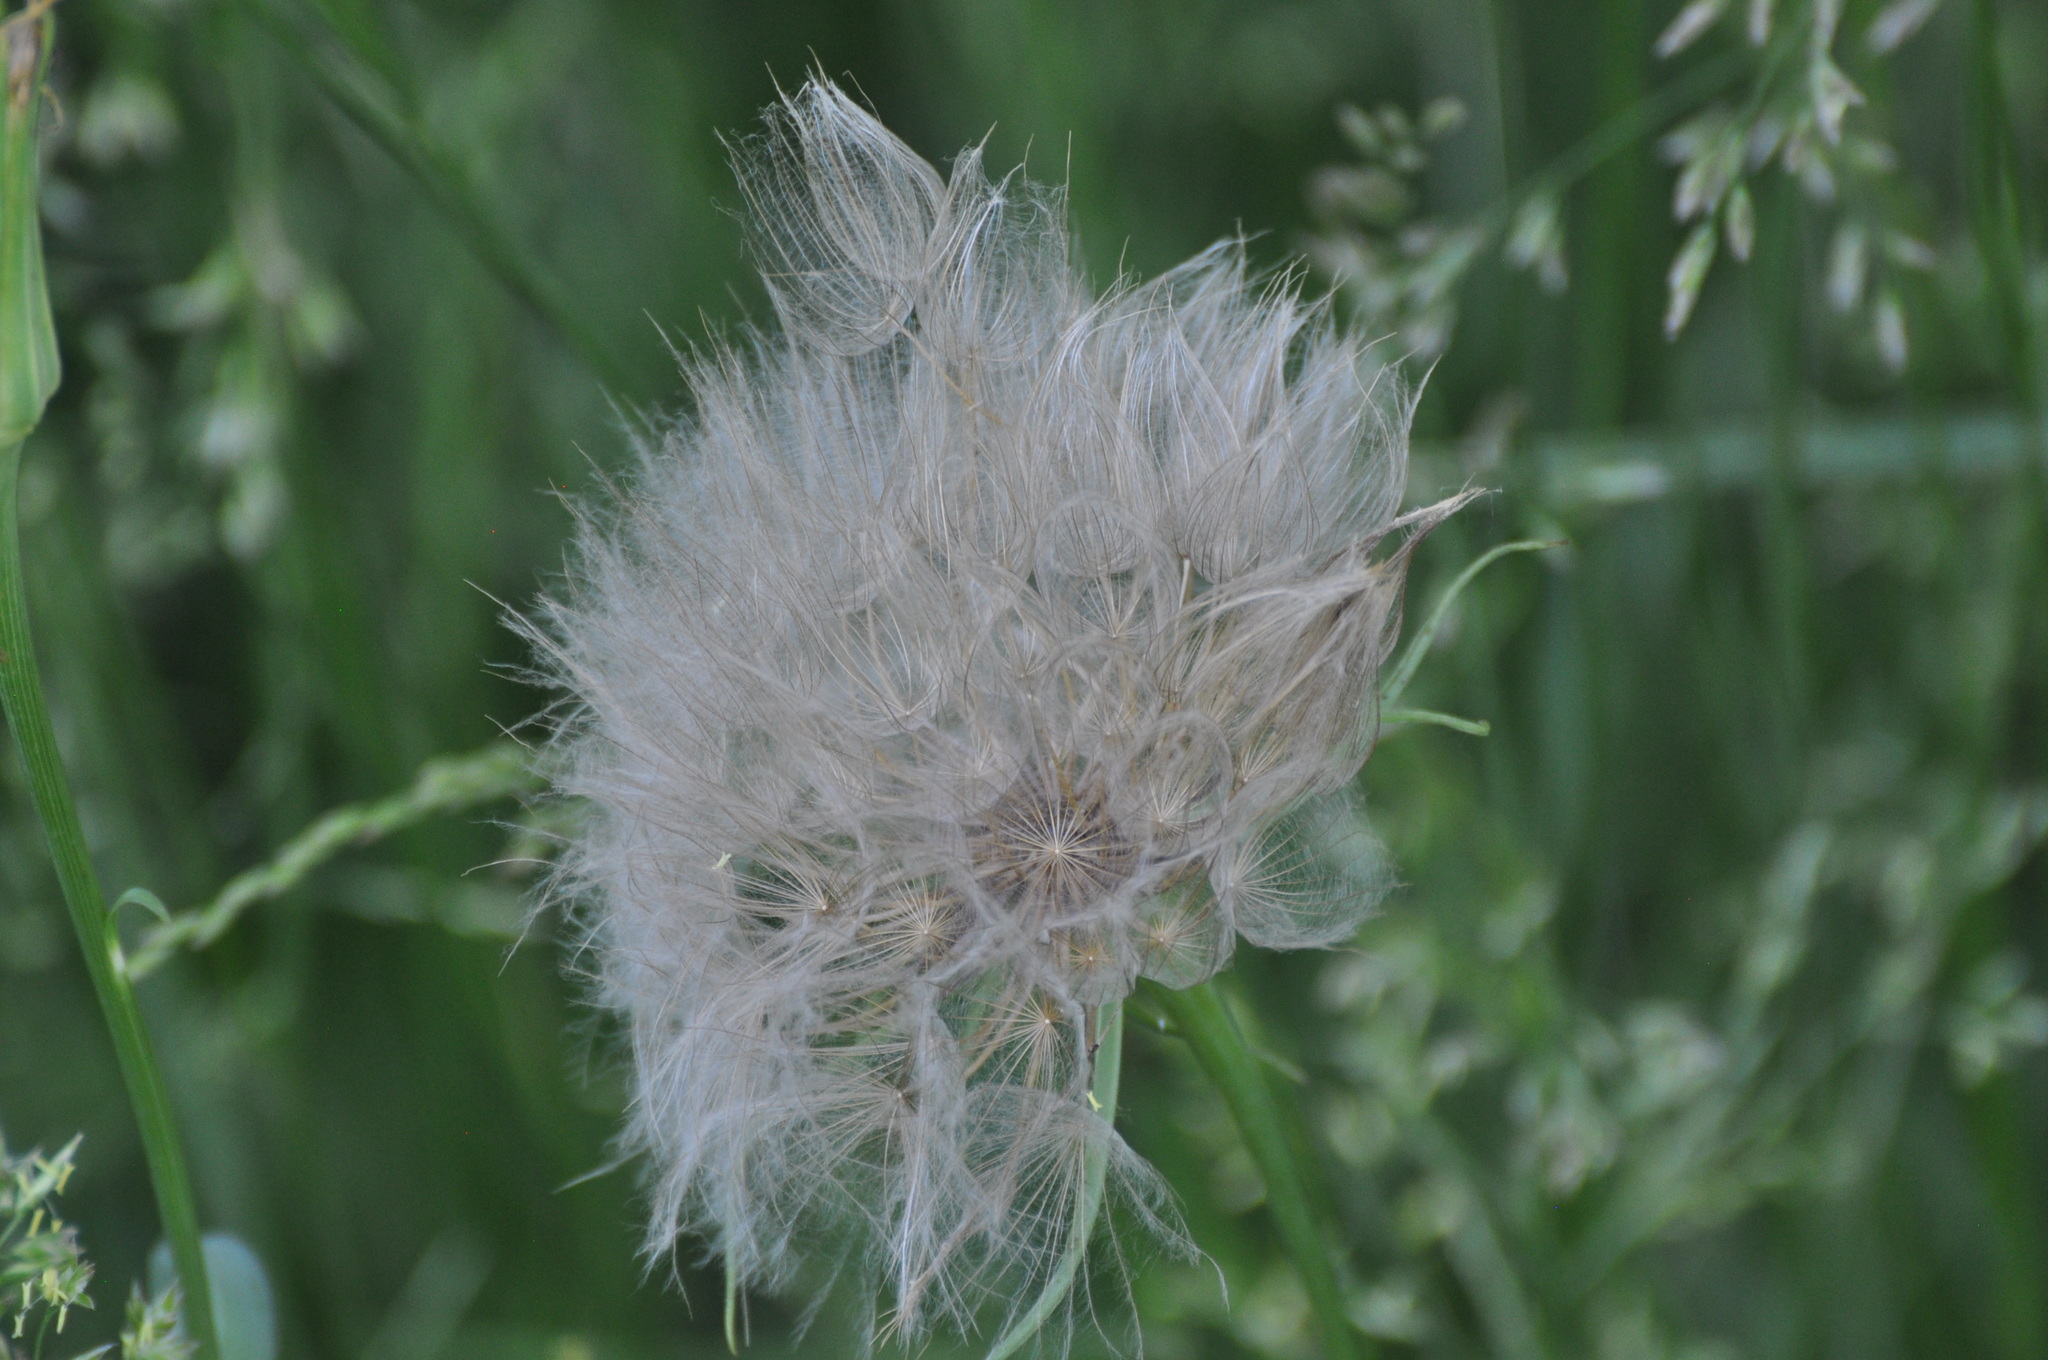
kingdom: Plantae
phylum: Tracheophyta
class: Magnoliopsida
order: Asterales
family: Asteraceae
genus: Tragopogon
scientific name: Tragopogon dubius
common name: Yellow salsify
